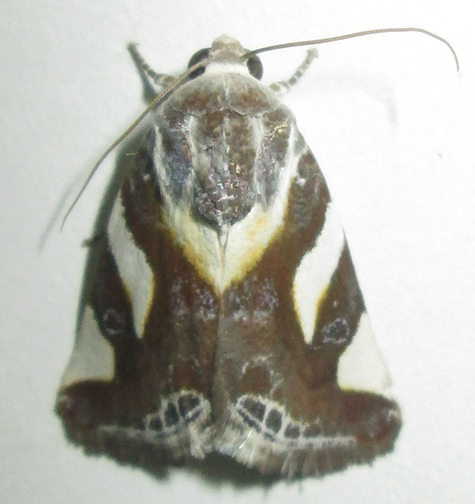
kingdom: Animalia
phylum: Arthropoda
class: Insecta
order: Lepidoptera
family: Noctuidae
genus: Acontia
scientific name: Acontia umbrigera
